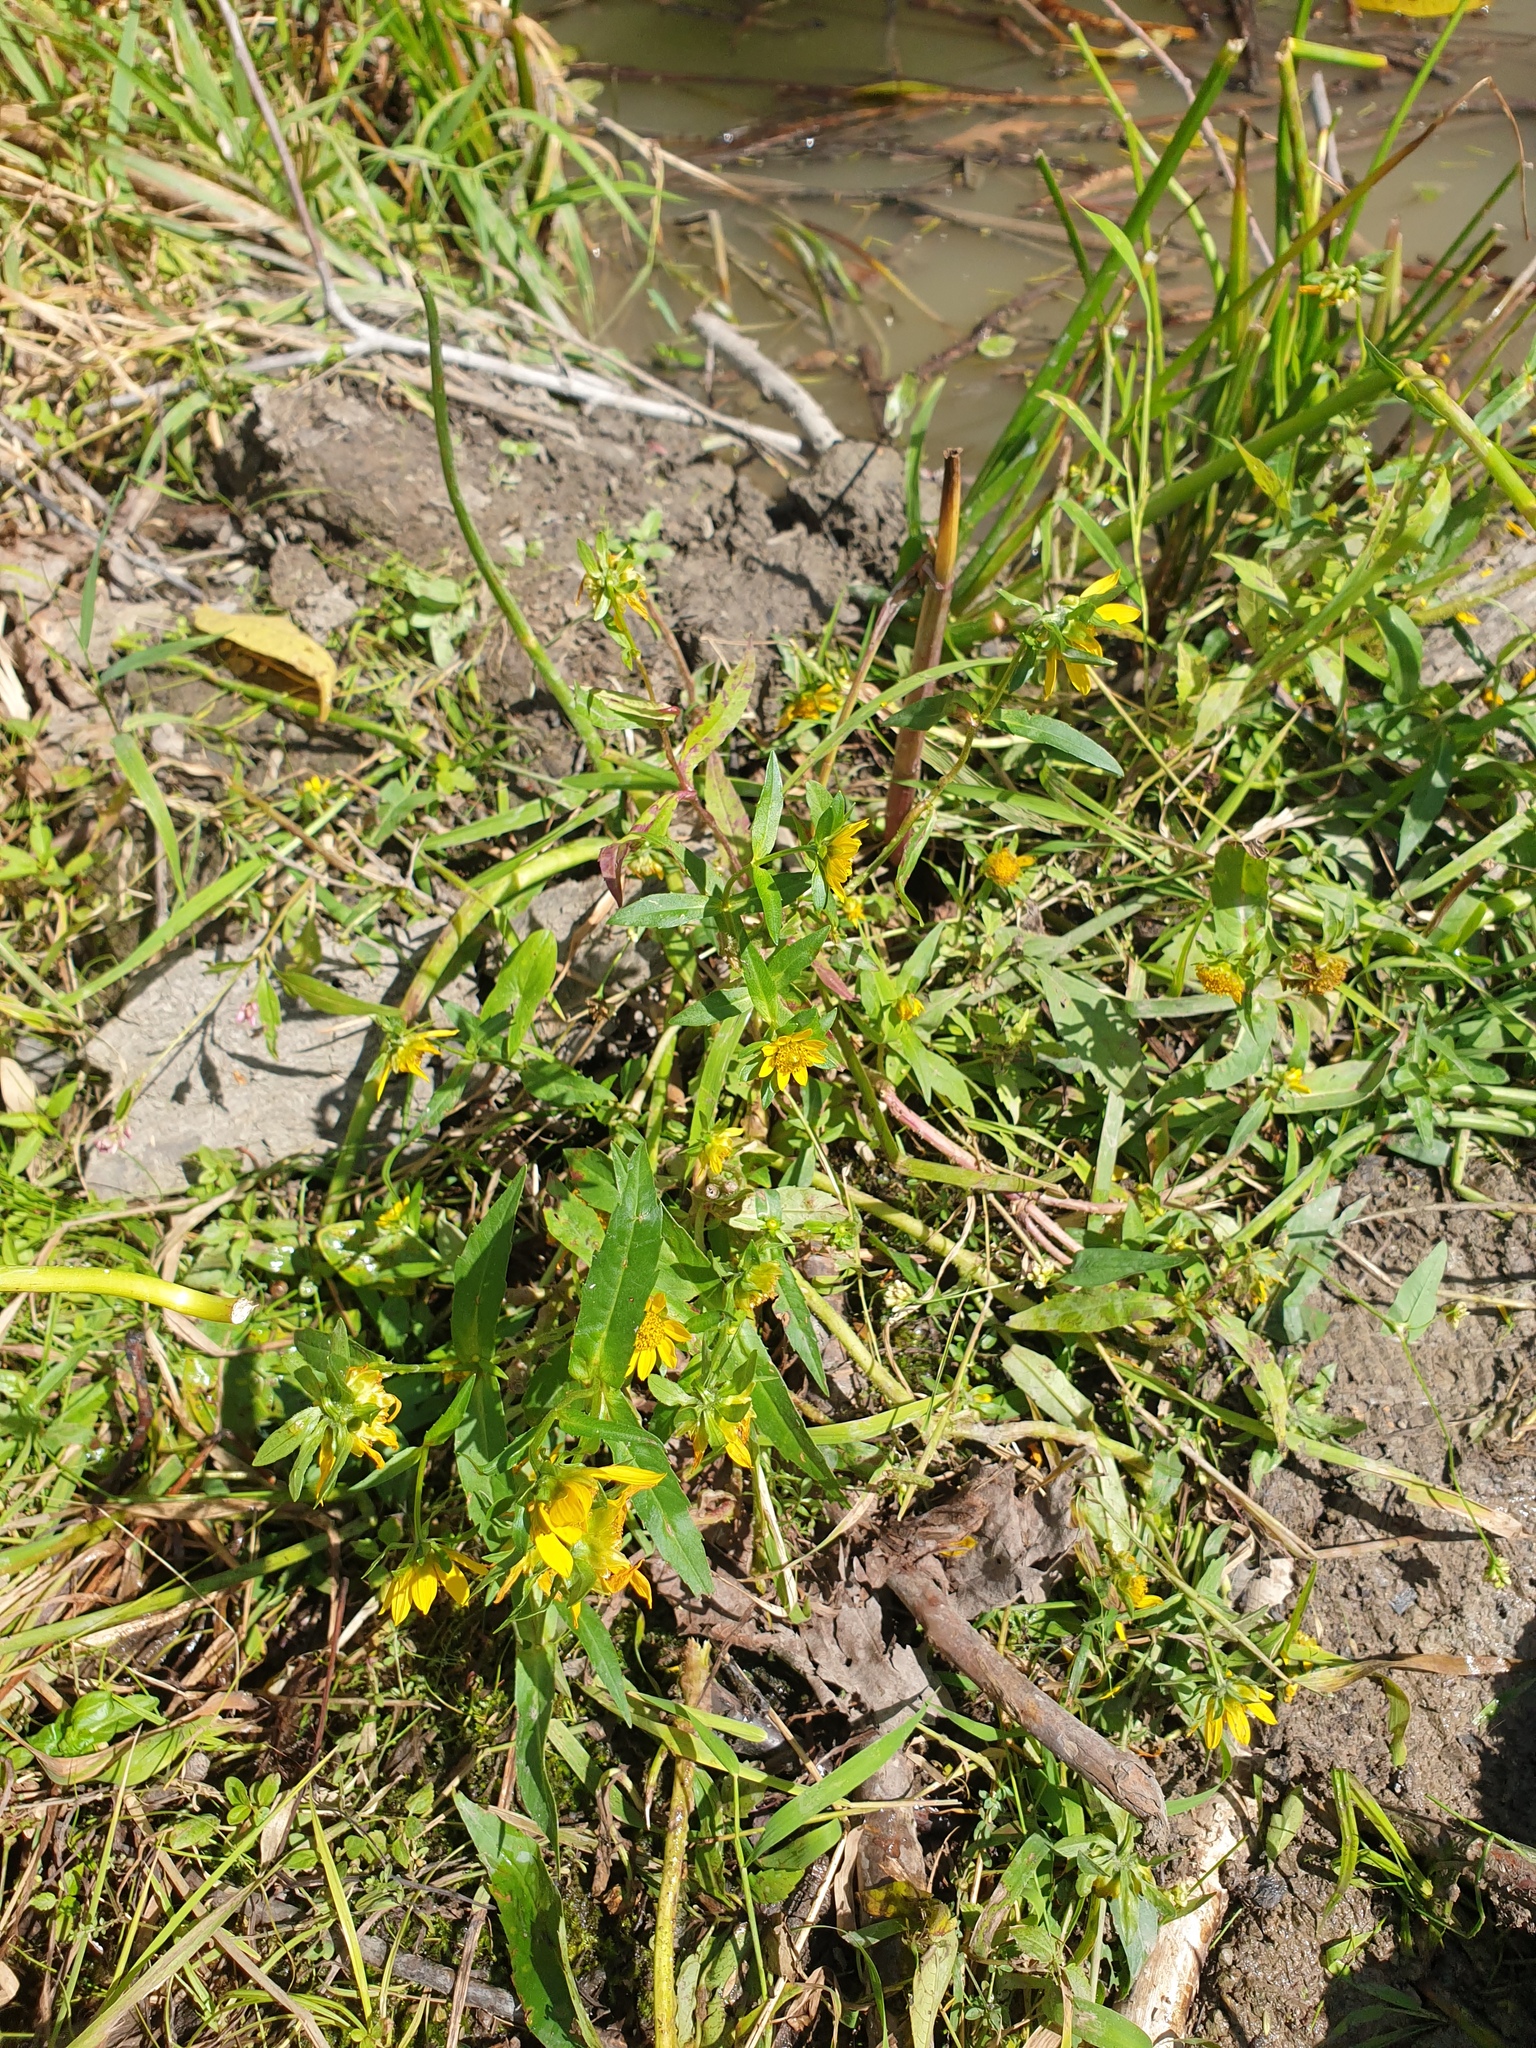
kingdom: Plantae
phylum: Tracheophyta
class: Magnoliopsida
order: Asterales
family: Asteraceae
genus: Bidens
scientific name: Bidens cernua
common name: Nodding bur-marigold
